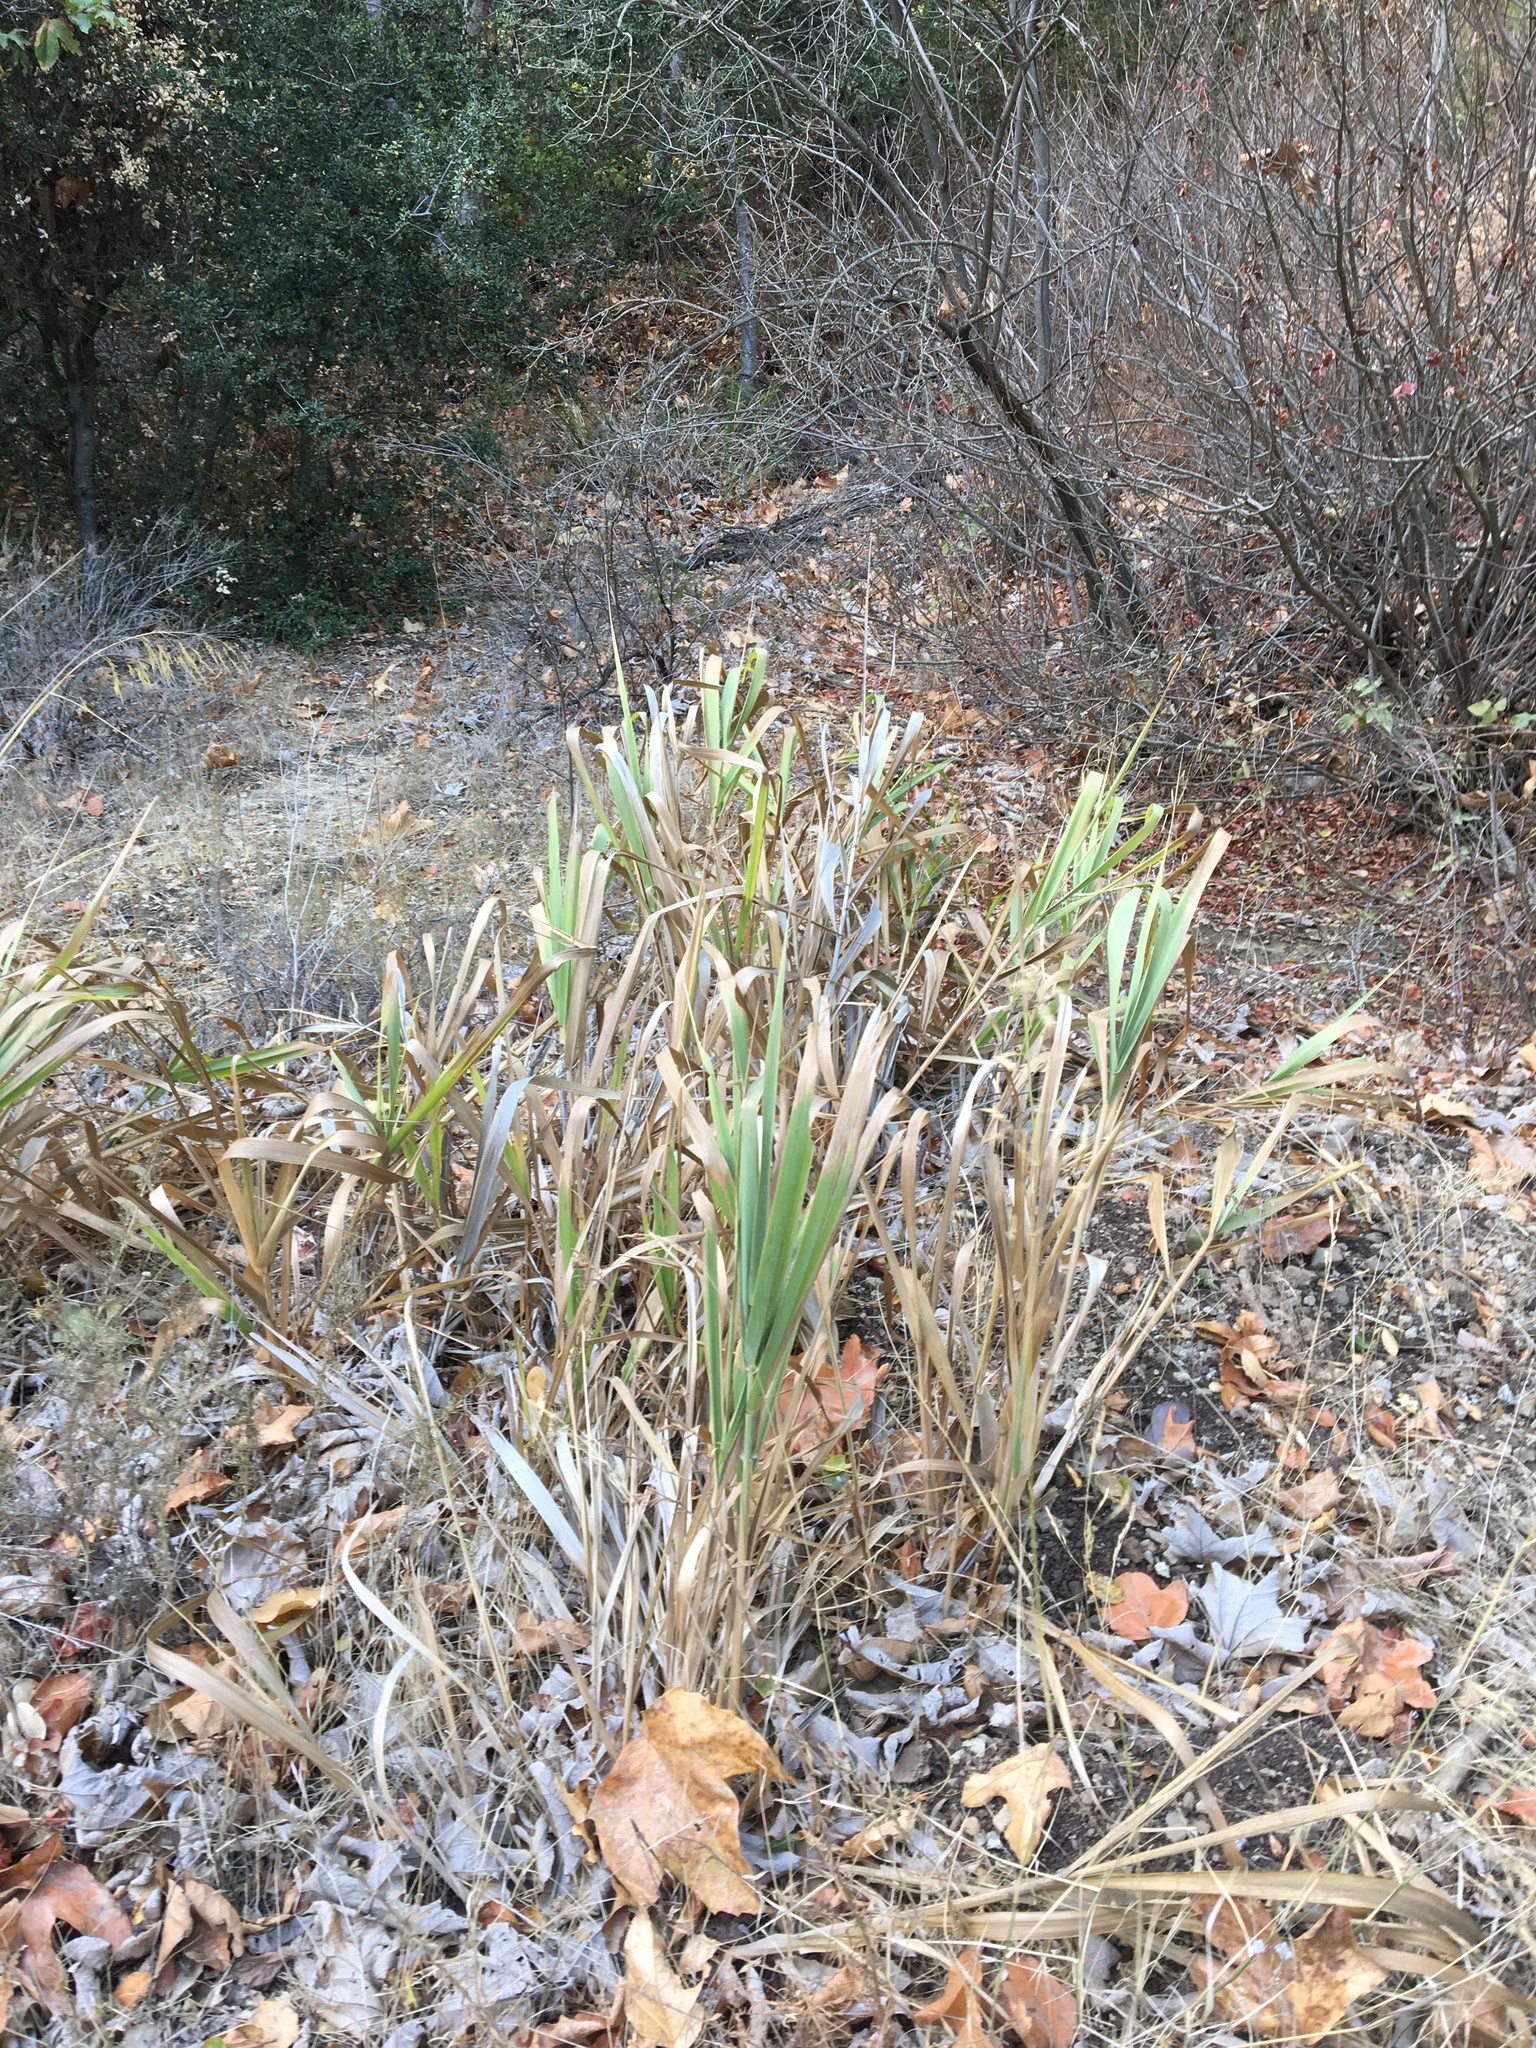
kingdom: Plantae
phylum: Tracheophyta
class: Liliopsida
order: Poales
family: Poaceae
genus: Leymus
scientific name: Leymus condensatus
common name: Giant wild rye
